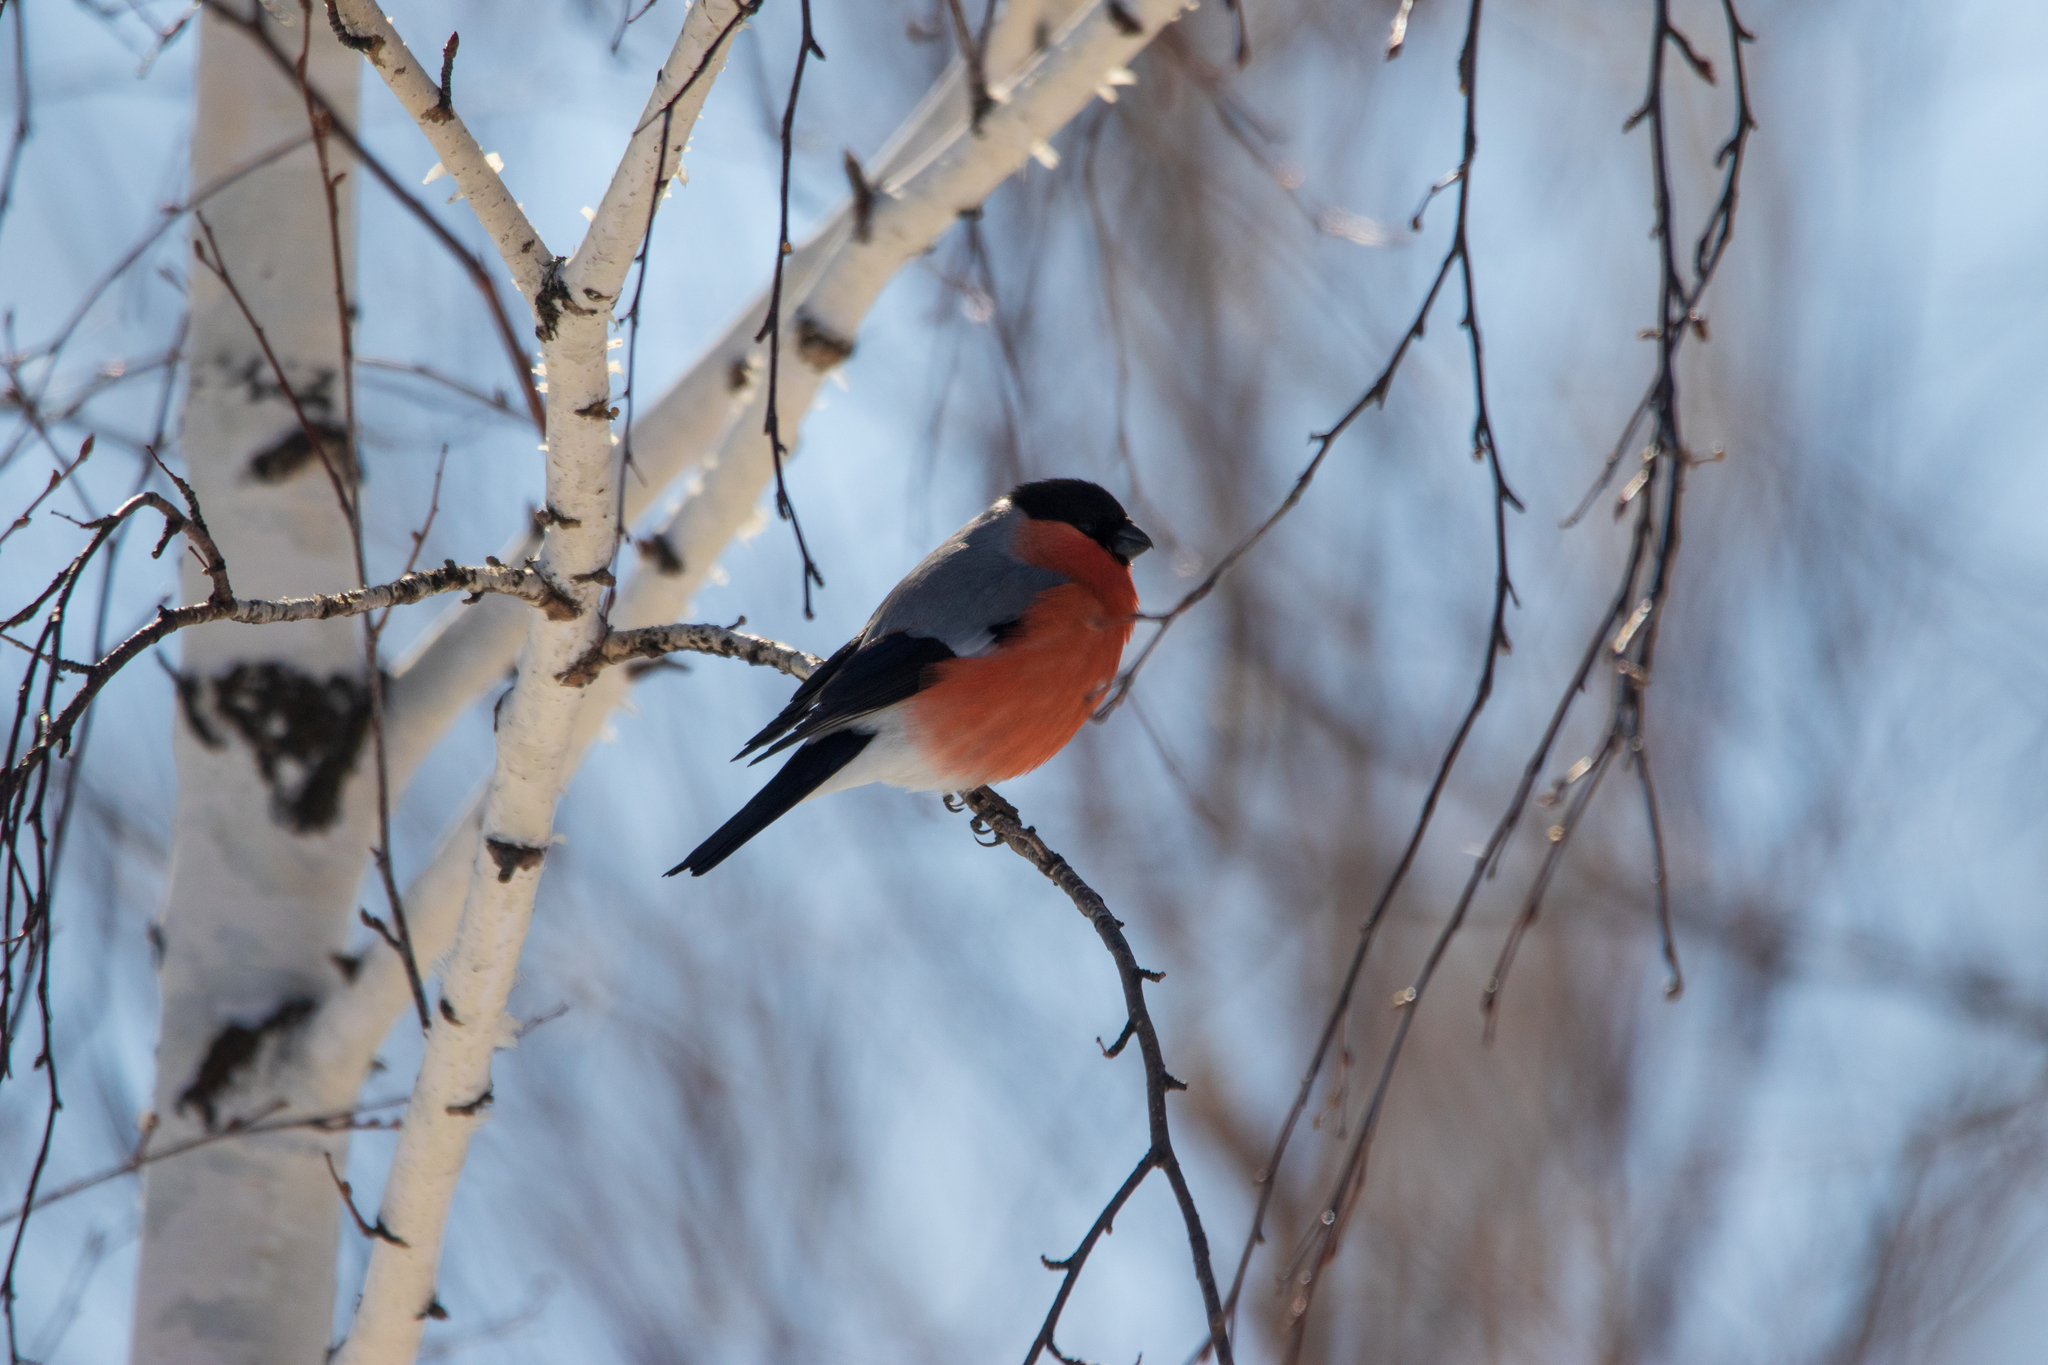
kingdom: Animalia
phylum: Chordata
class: Aves
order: Passeriformes
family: Fringillidae
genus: Pyrrhula
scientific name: Pyrrhula pyrrhula
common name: Eurasian bullfinch
